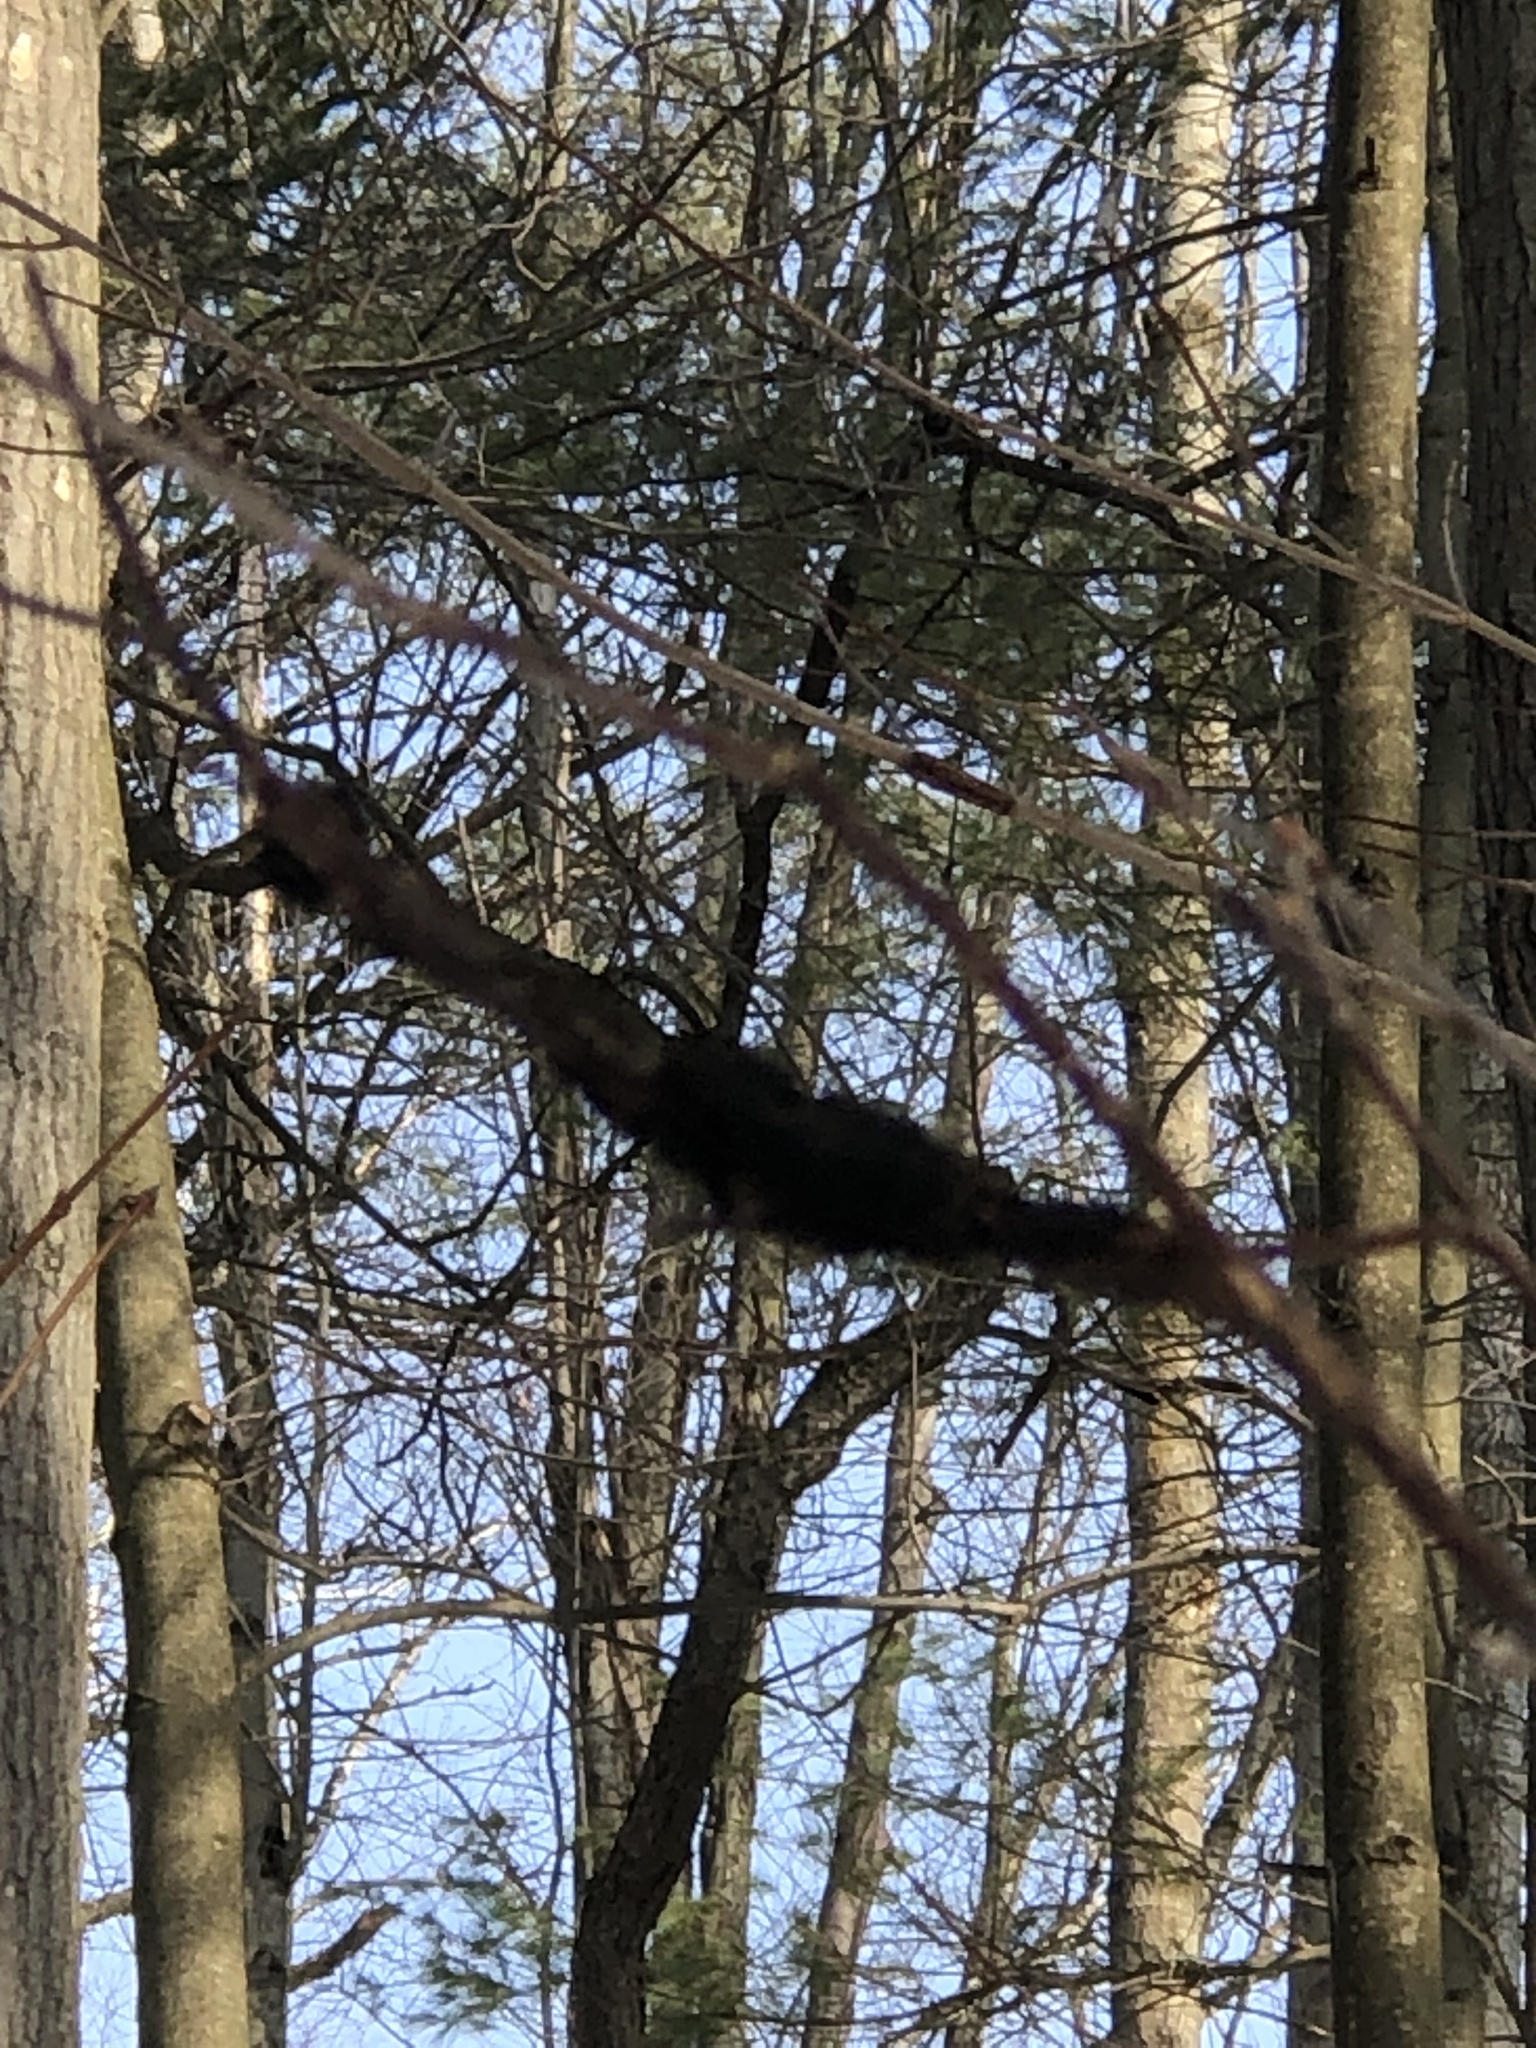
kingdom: Fungi
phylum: Ascomycota
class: Dothideomycetes
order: Venturiales
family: Venturiaceae
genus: Apiosporina
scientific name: Apiosporina morbosa
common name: Black knot
